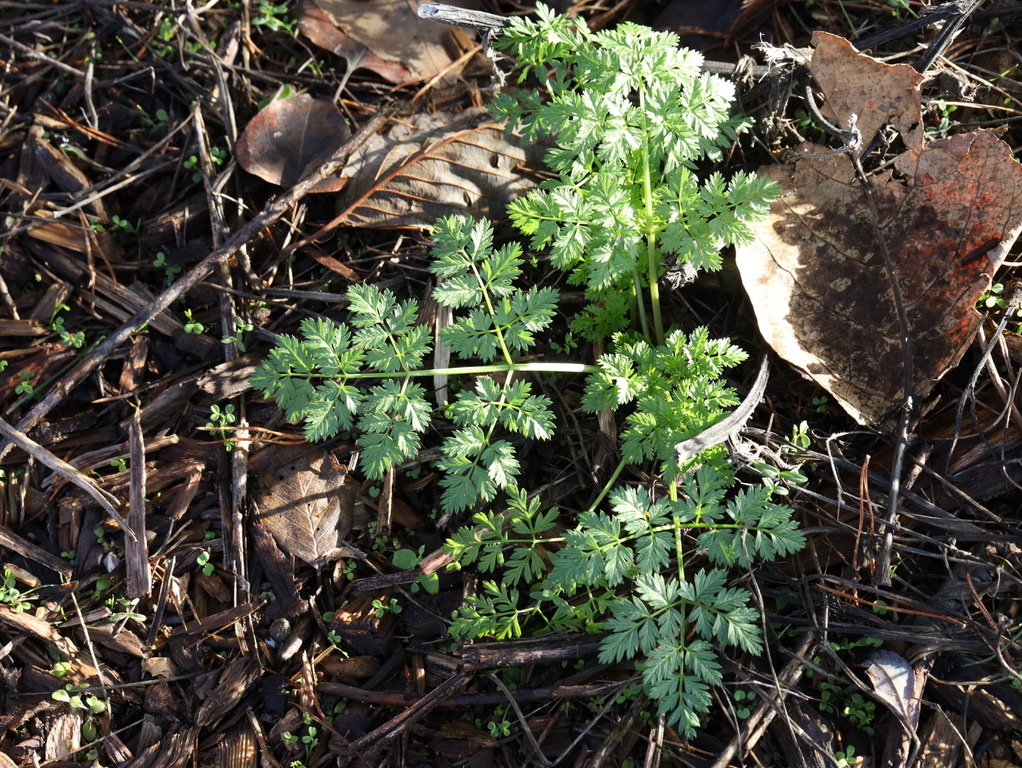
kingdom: Plantae
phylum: Tracheophyta
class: Magnoliopsida
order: Apiales
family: Apiaceae
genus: Conium
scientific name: Conium maculatum
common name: Hemlock
